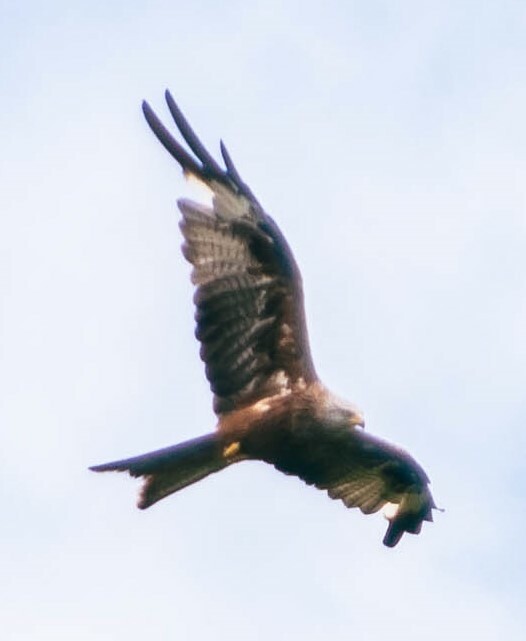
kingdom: Animalia
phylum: Chordata
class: Aves
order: Accipitriformes
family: Accipitridae
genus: Milvus
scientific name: Milvus milvus
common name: Red kite
